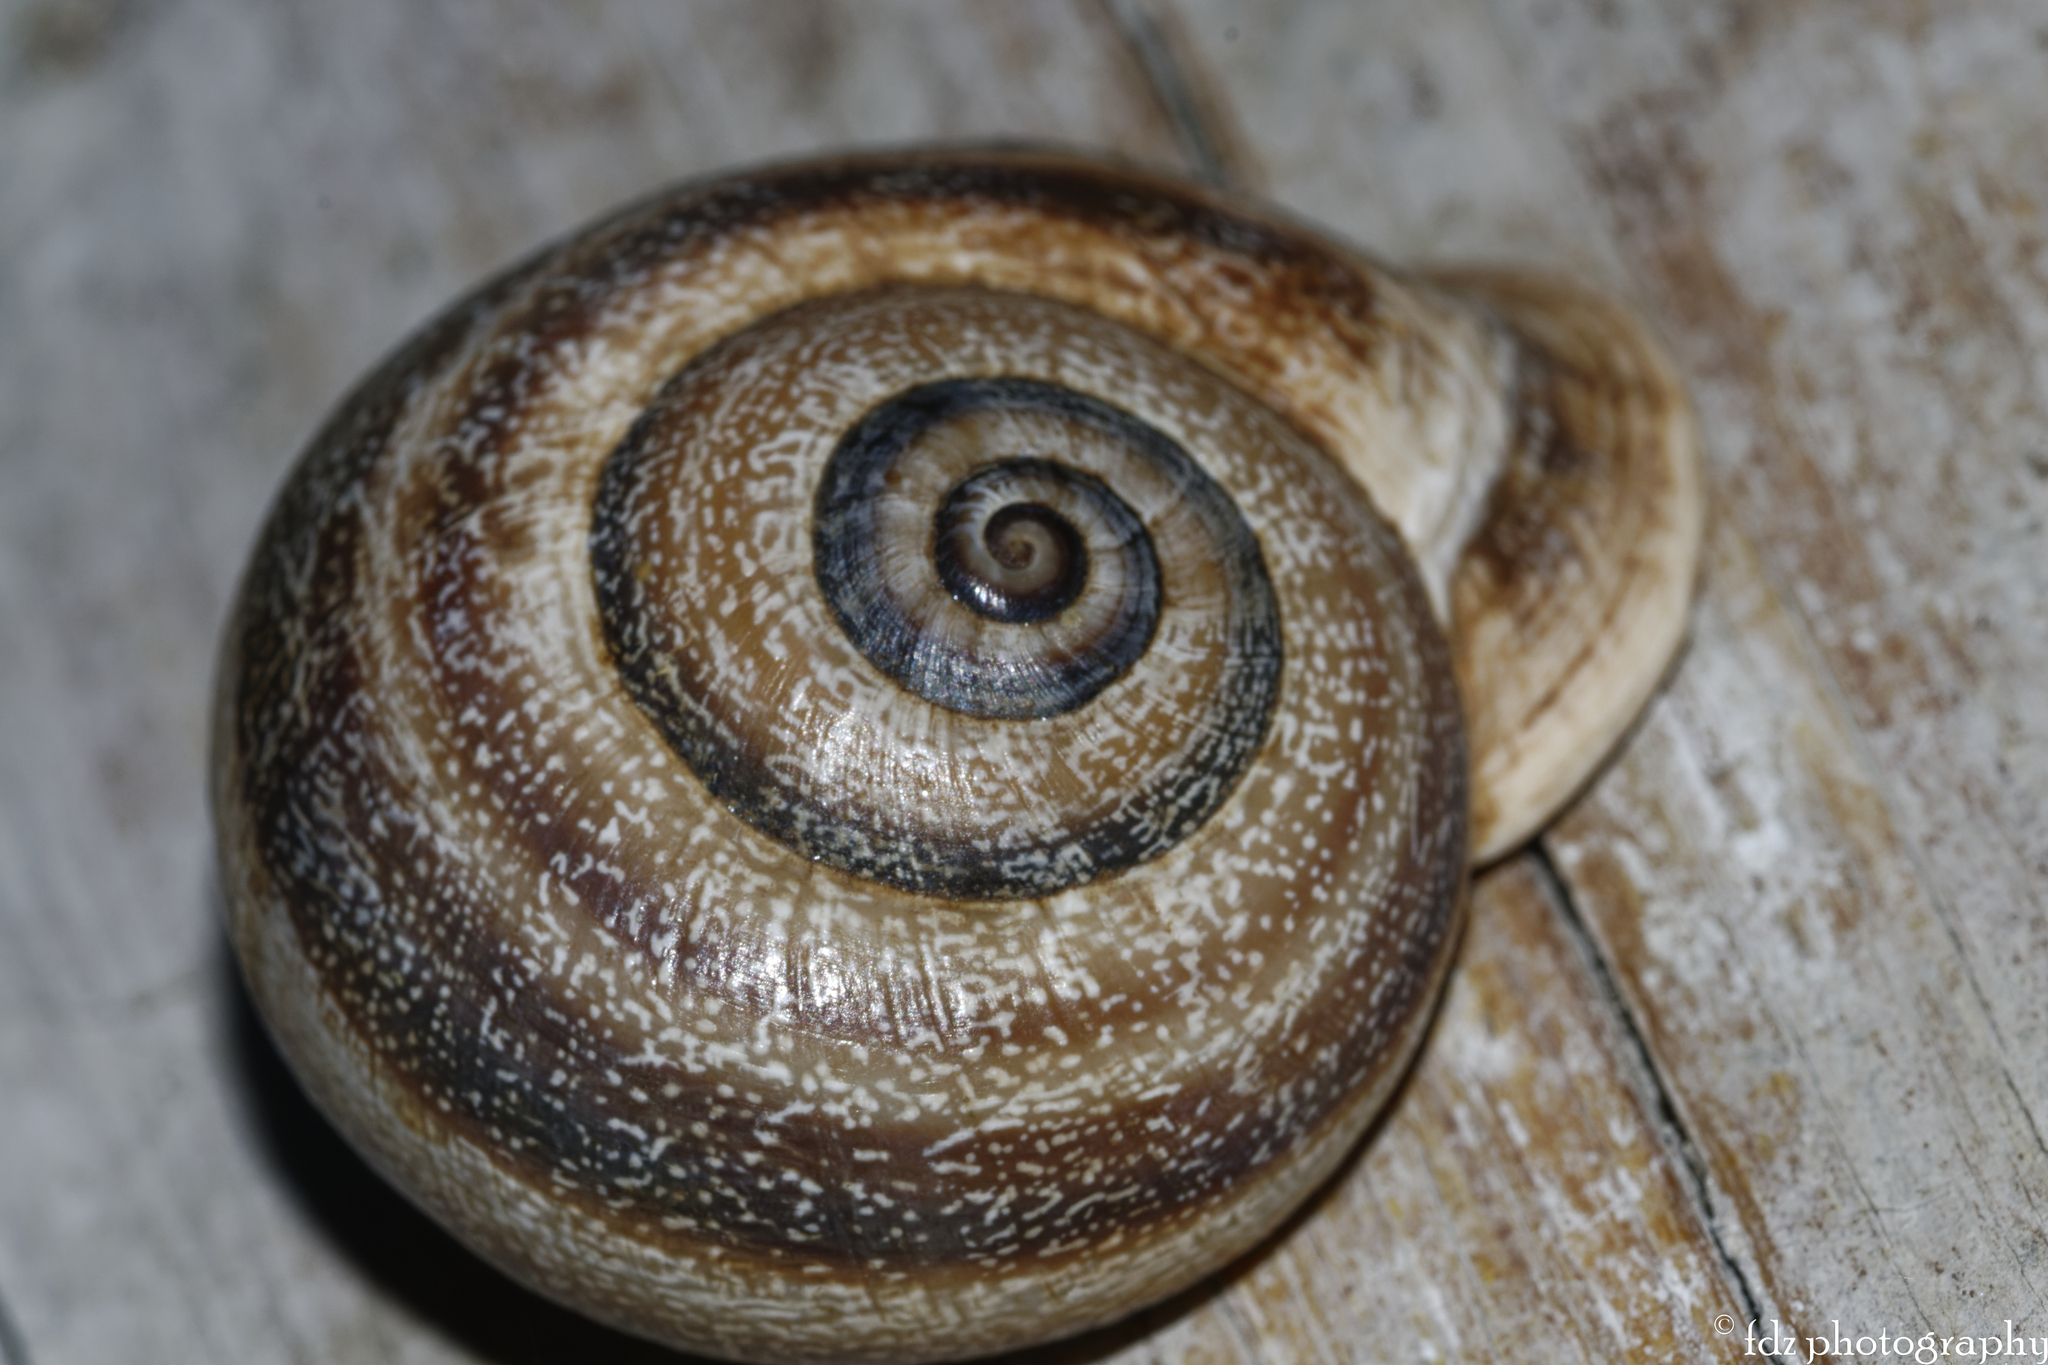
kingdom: Animalia
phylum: Mollusca
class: Gastropoda
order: Stylommatophora
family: Helicidae
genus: Otala
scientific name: Otala punctata
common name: Milk snail
